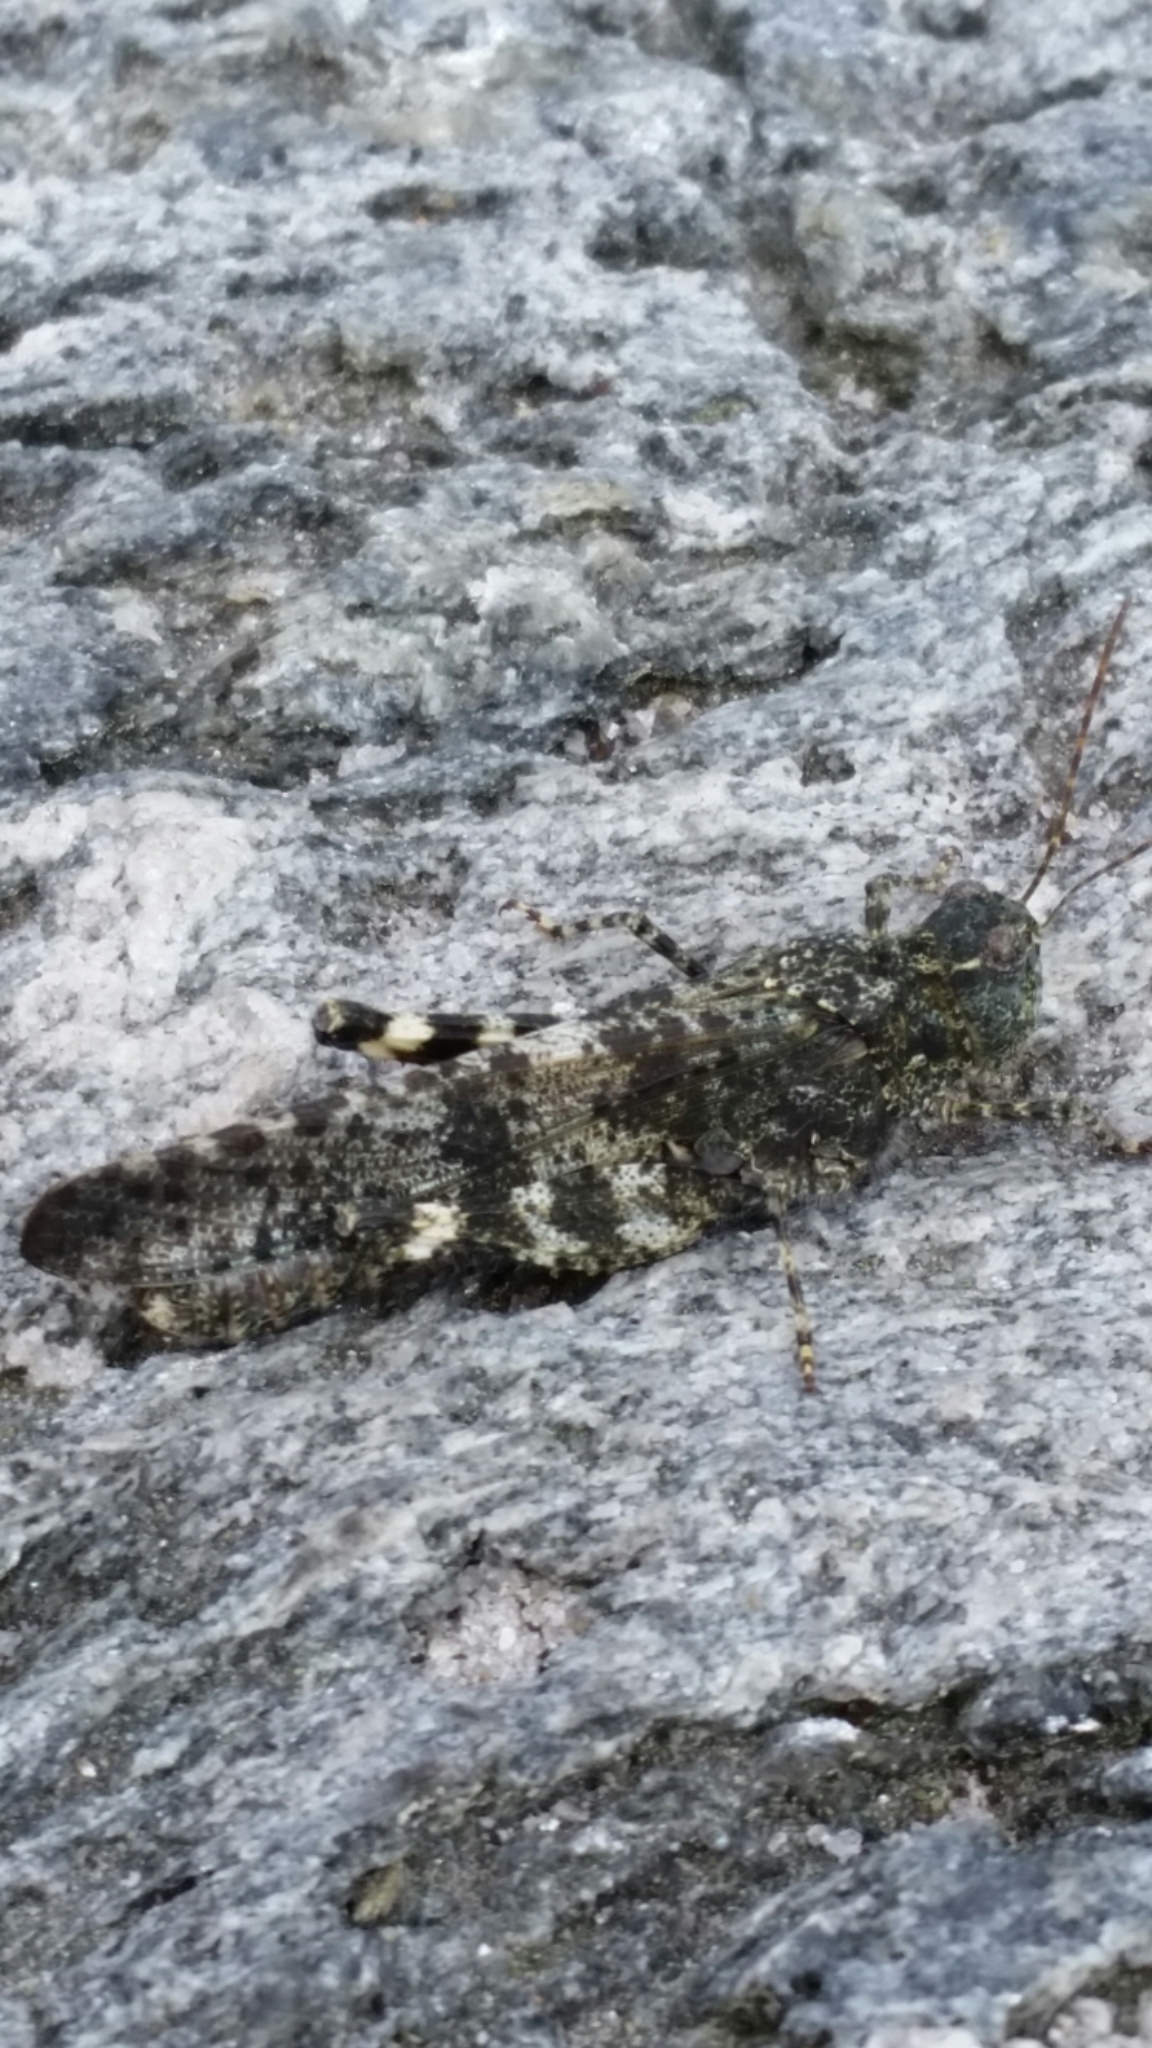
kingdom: Animalia
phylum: Arthropoda
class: Insecta
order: Orthoptera
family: Acrididae
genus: Trimerotropis
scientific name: Trimerotropis verruculata
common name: Crackling forest grasshopper
